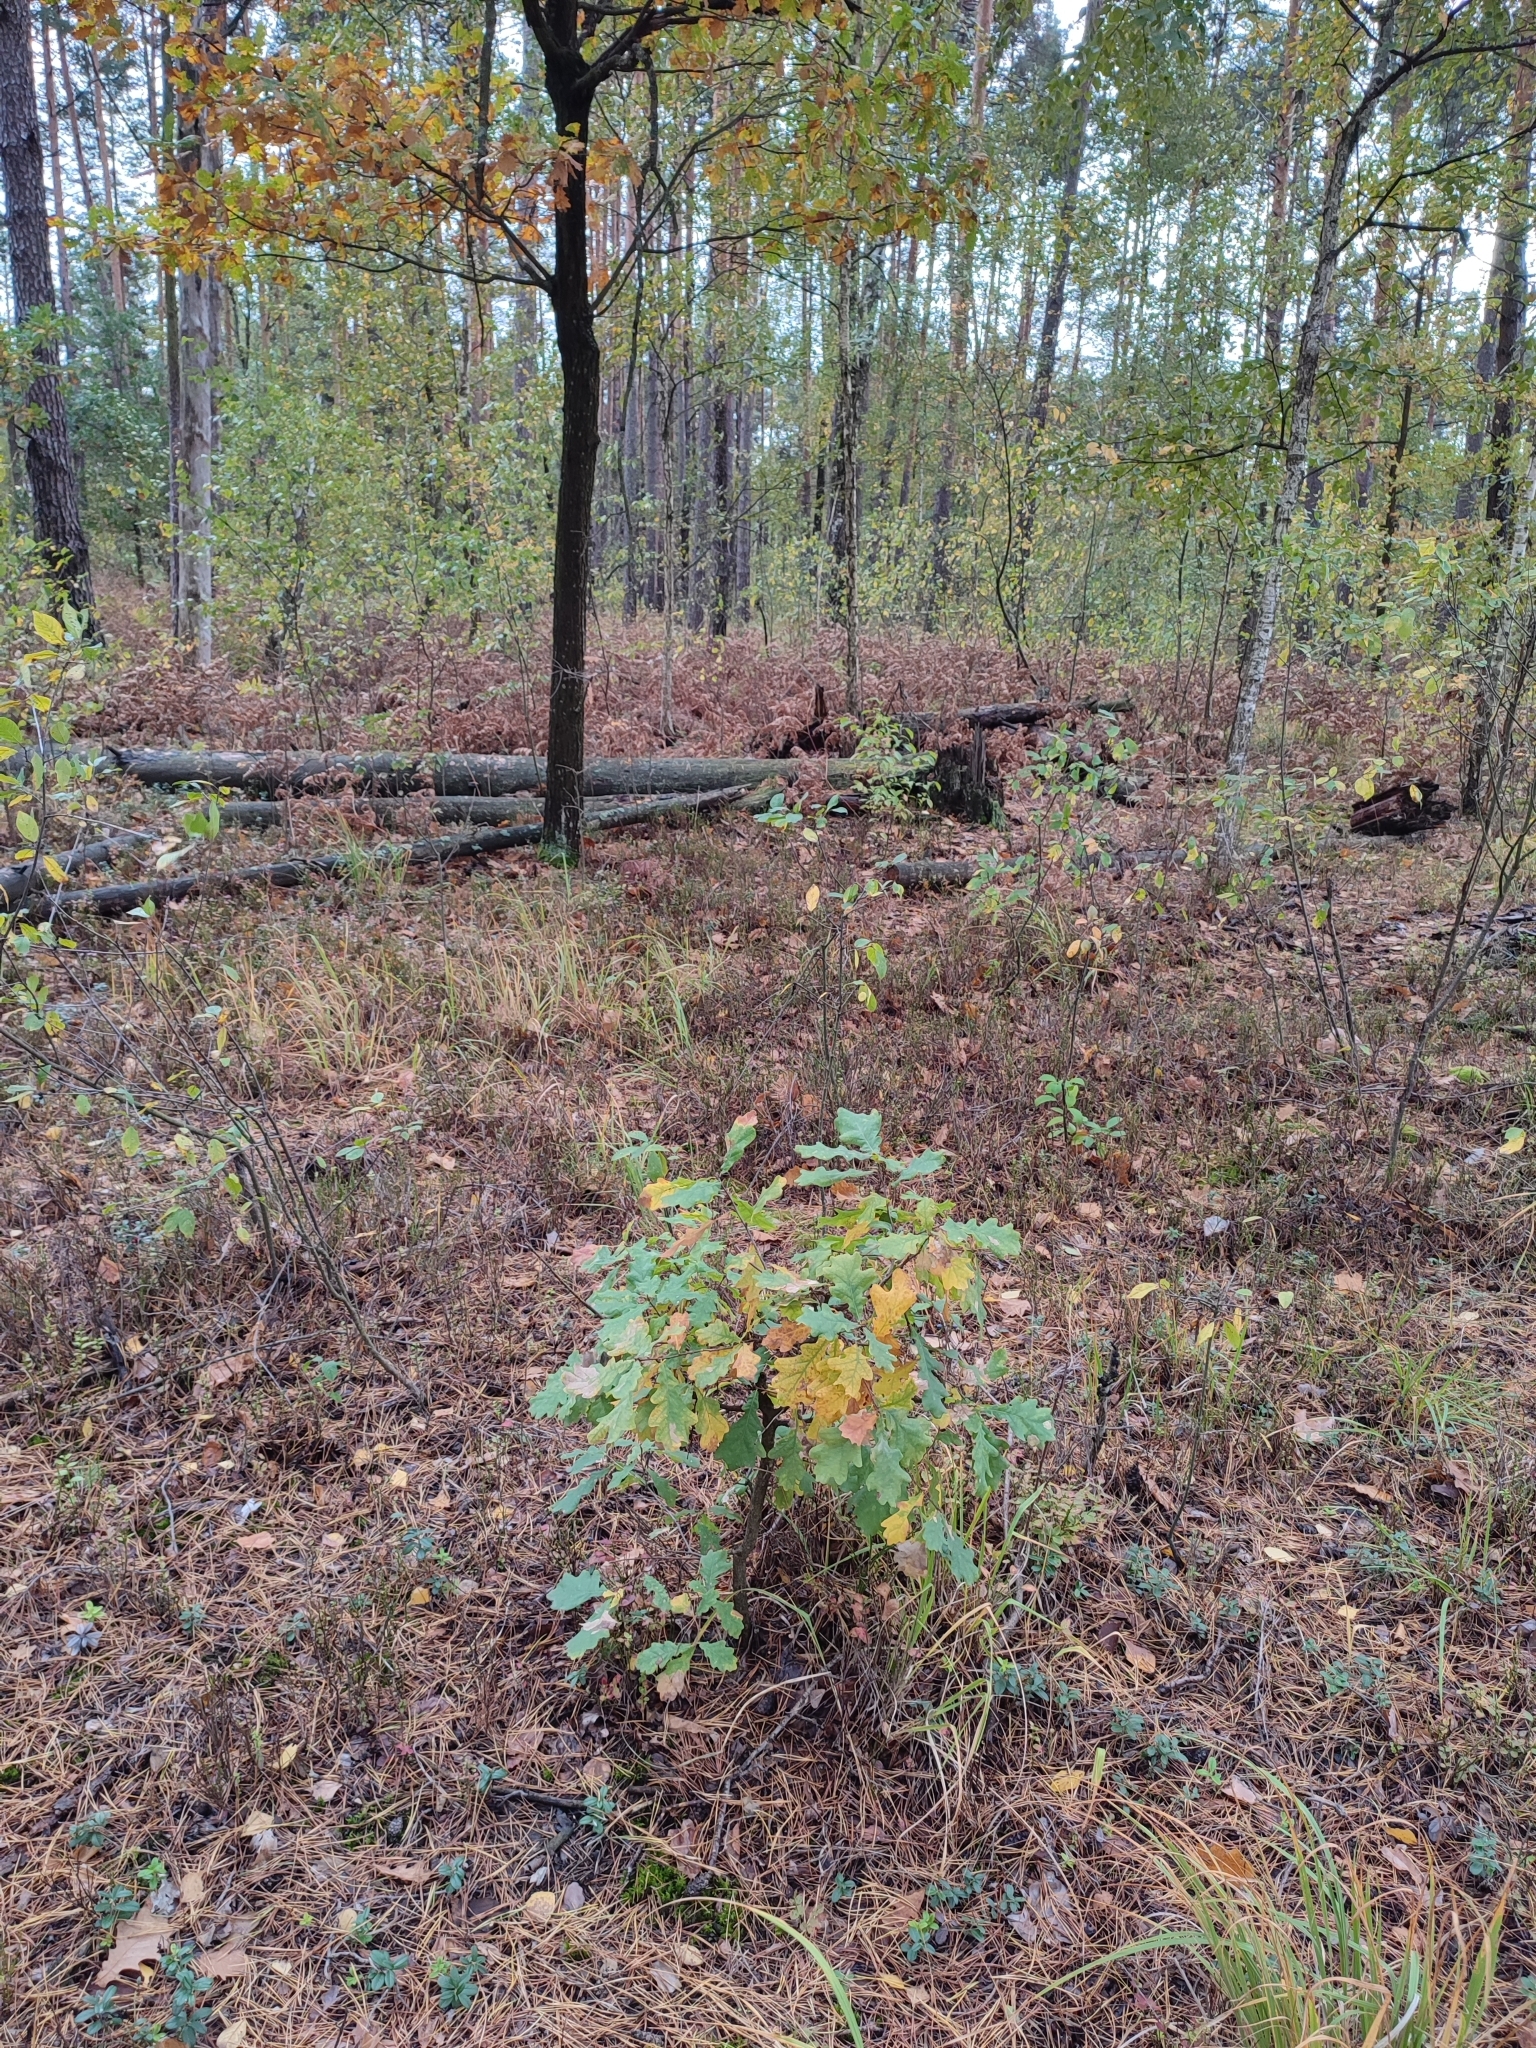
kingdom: Plantae
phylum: Tracheophyta
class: Magnoliopsida
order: Fagales
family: Fagaceae
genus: Quercus
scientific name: Quercus robur
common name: Pedunculate oak
